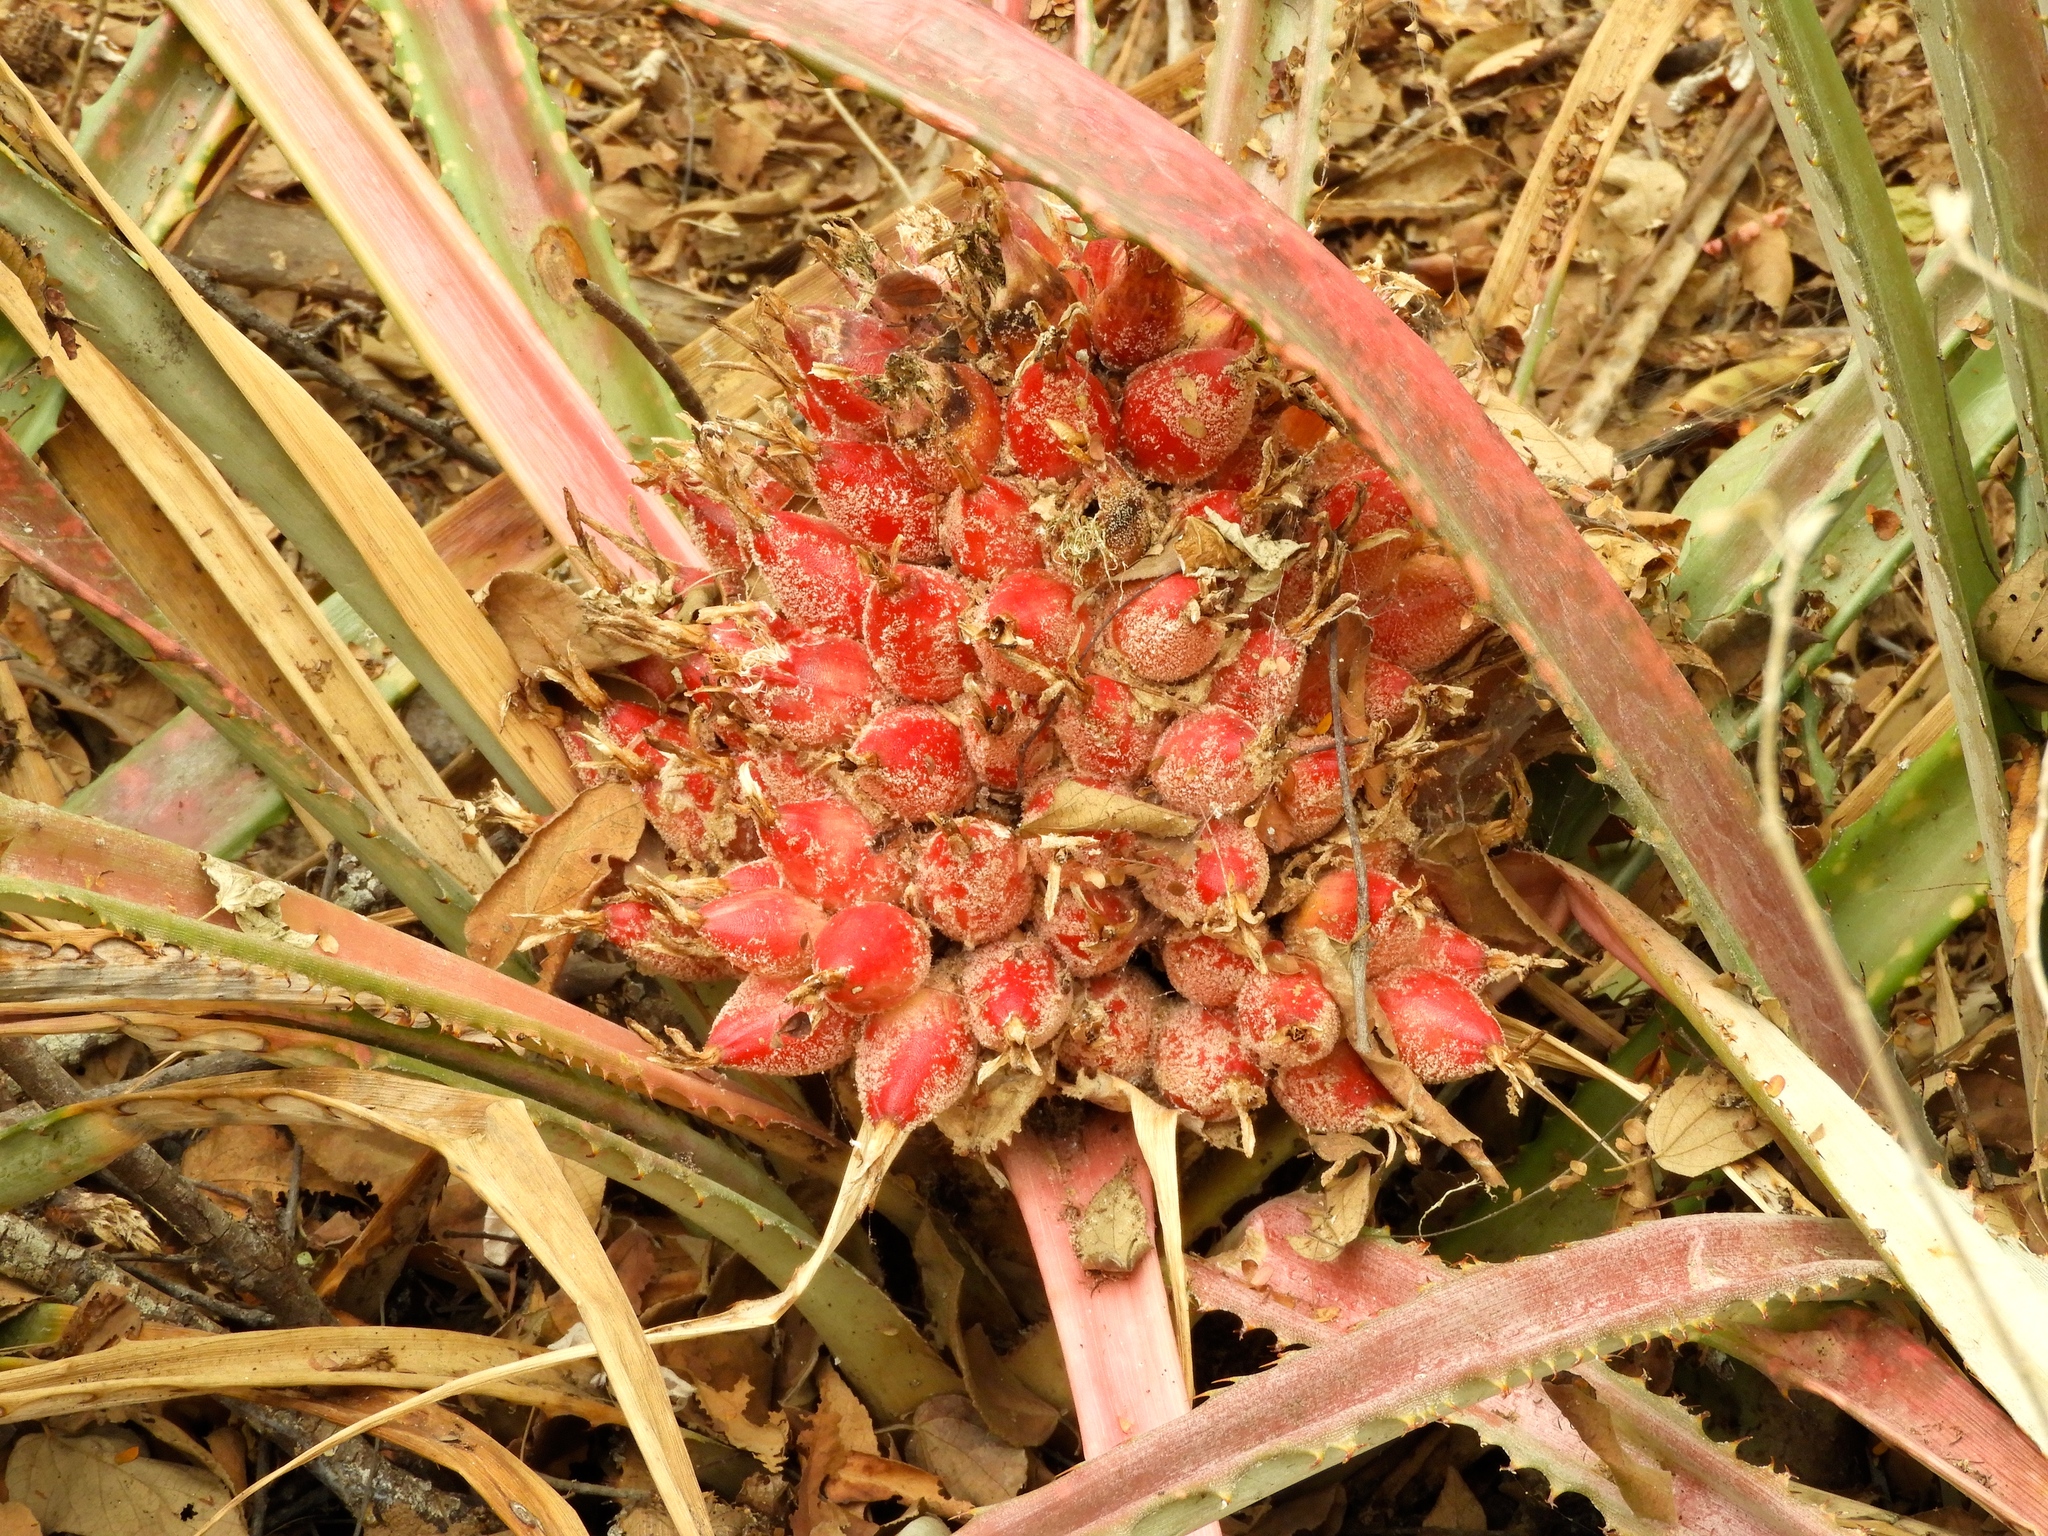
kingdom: Plantae
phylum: Tracheophyta
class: Liliopsida
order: Poales
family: Bromeliaceae
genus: Bromelia
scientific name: Bromelia hemisphaerica
